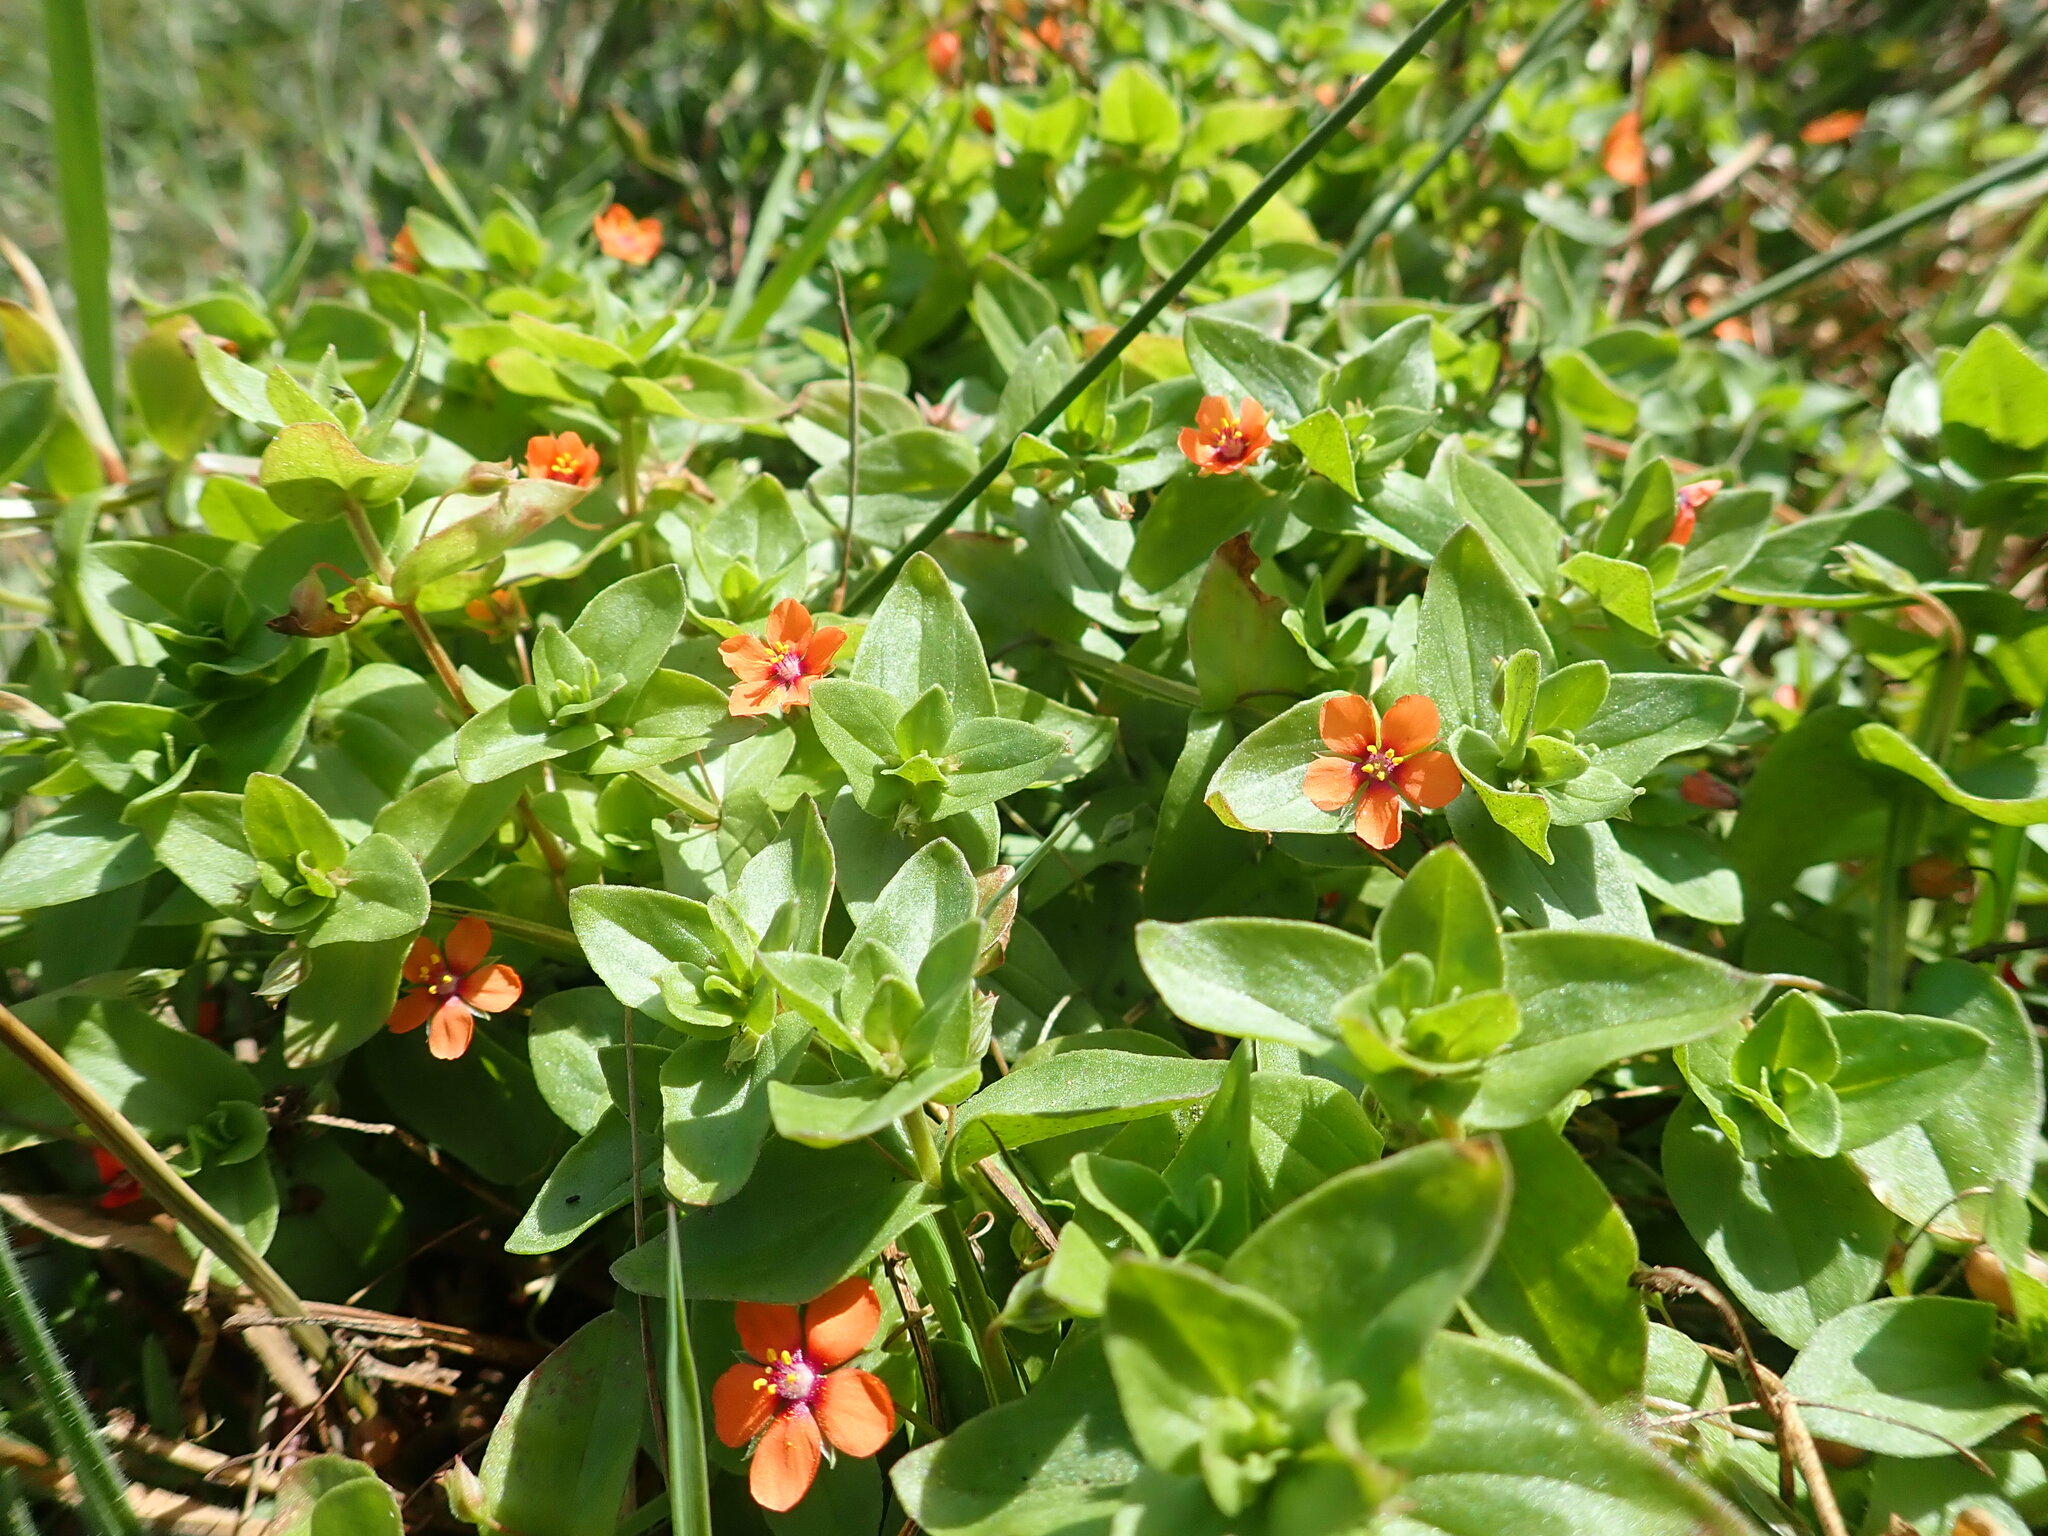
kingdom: Plantae
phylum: Tracheophyta
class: Magnoliopsida
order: Ericales
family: Primulaceae
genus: Lysimachia
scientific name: Lysimachia arvensis
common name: Scarlet pimpernel
